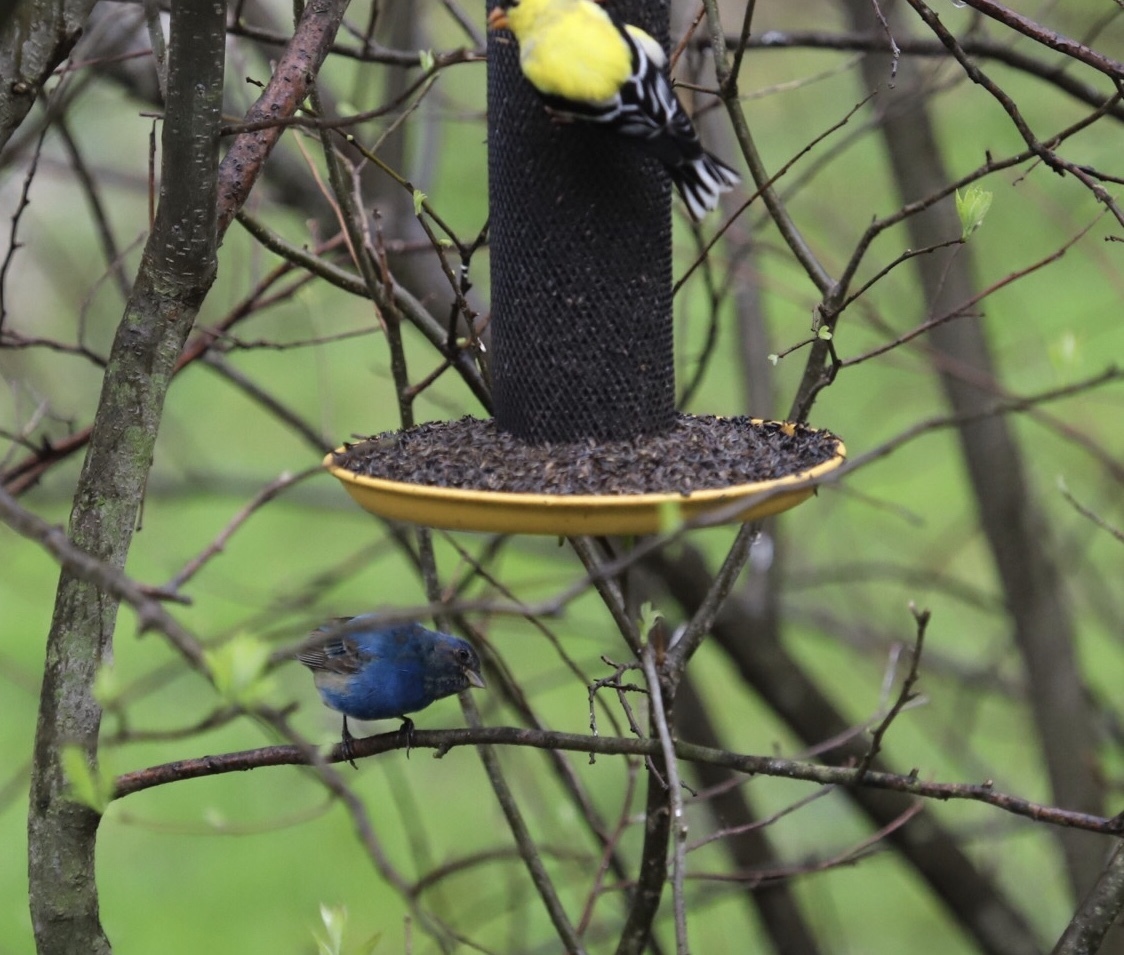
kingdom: Animalia
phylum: Chordata
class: Aves
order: Passeriformes
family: Cardinalidae
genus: Passerina
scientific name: Passerina cyanea
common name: Indigo bunting
